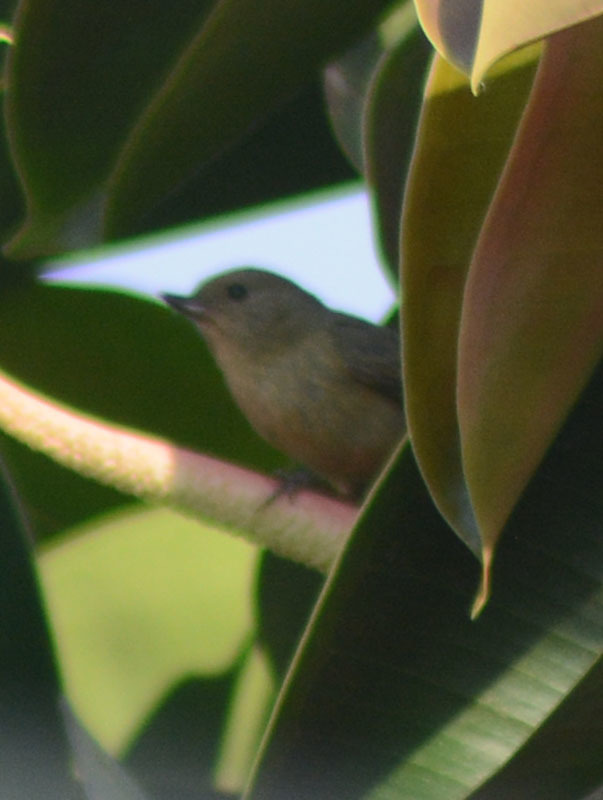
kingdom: Animalia
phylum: Chordata
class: Aves
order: Passeriformes
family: Thraupidae
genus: Diglossa
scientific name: Diglossa baritula
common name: Cinnamon-bellied flowerpiercer
